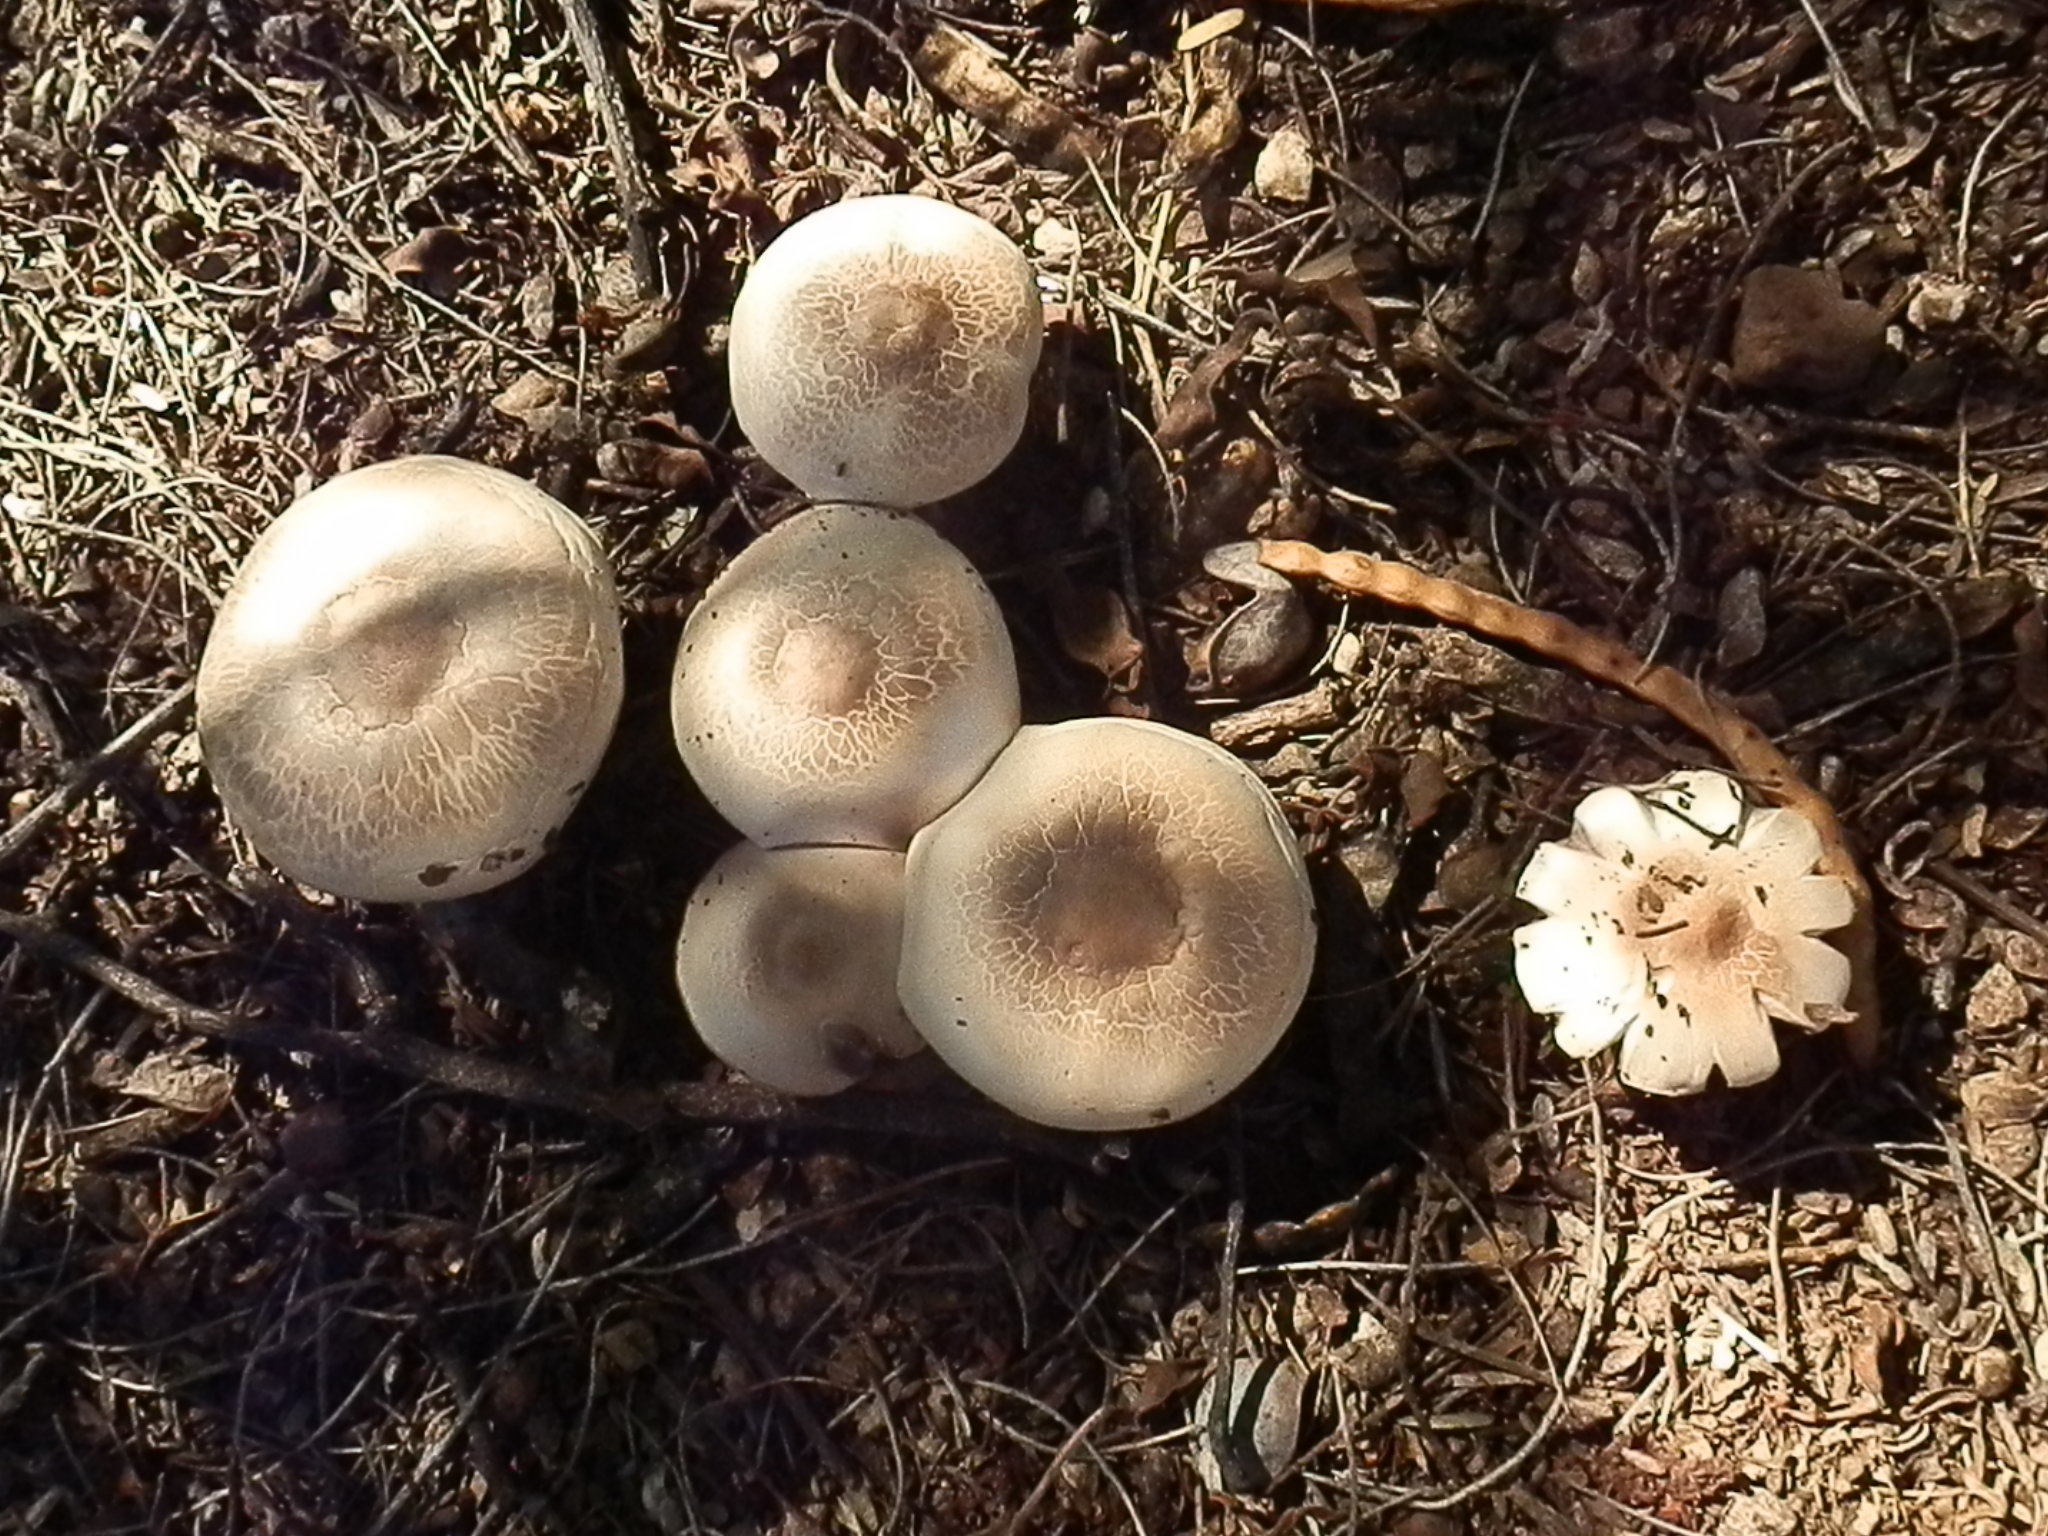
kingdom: Fungi
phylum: Basidiomycota
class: Agaricomycetes
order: Agaricales
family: Agaricaceae
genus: Agaricus
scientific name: Agaricus caribaeus
